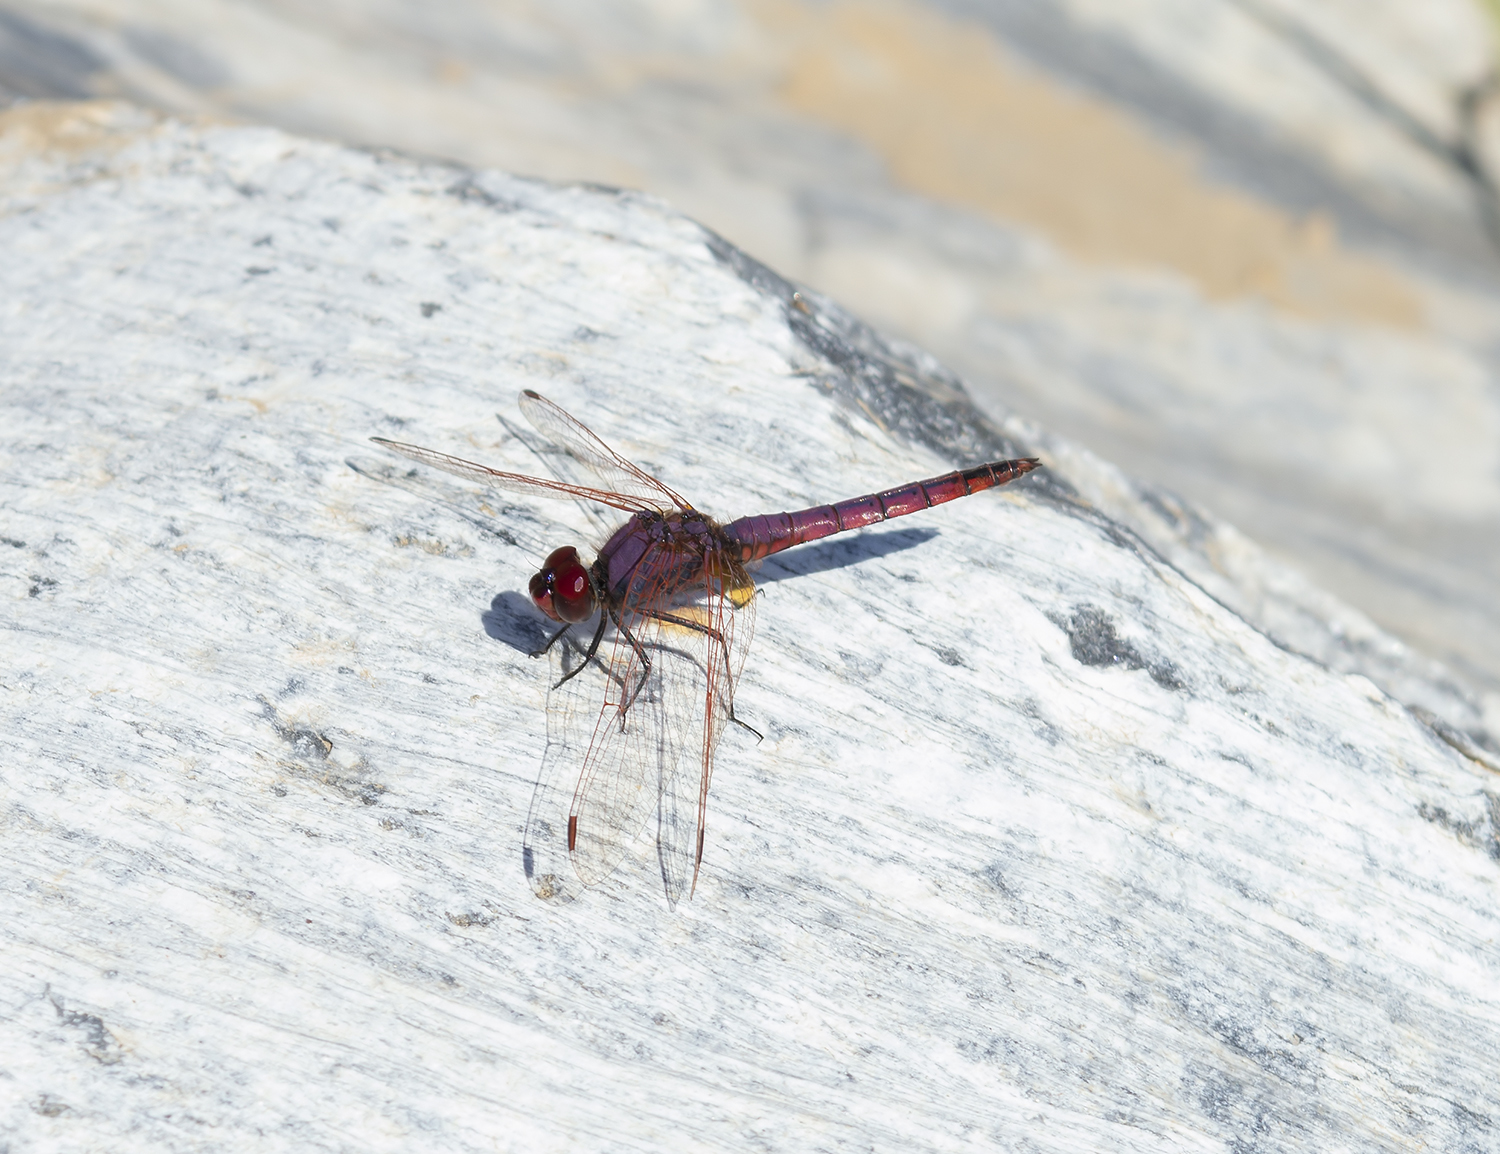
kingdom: Animalia
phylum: Arthropoda
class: Insecta
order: Odonata
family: Libellulidae
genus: Trithemis
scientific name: Trithemis annulata
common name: Violet dropwing
